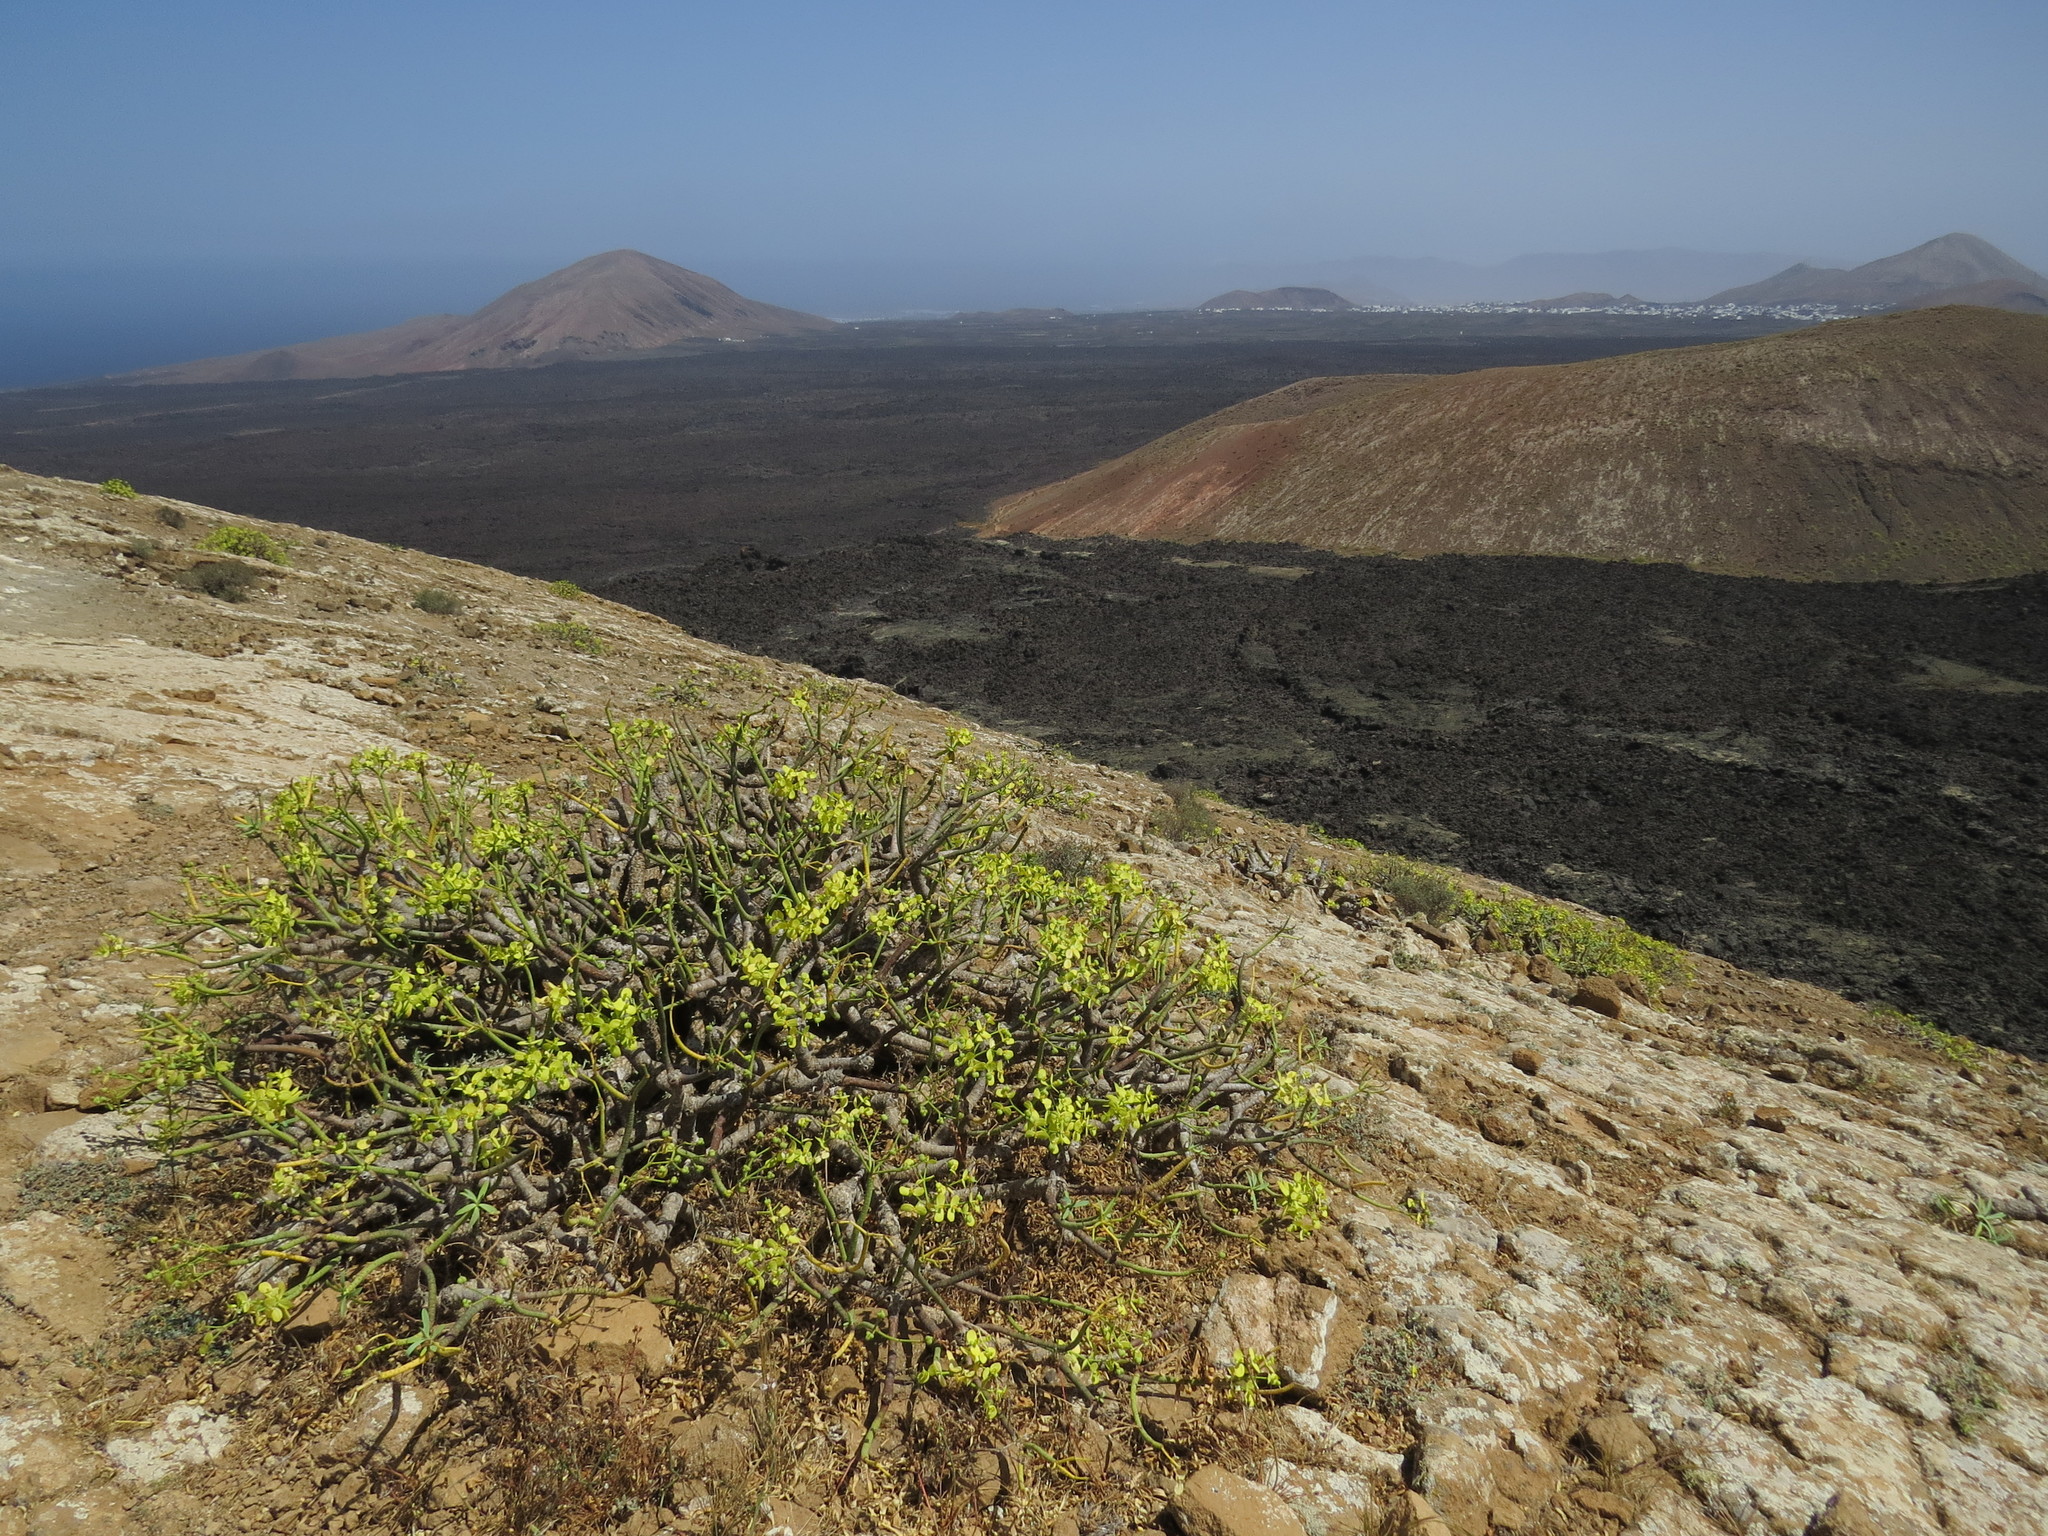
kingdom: Plantae
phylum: Tracheophyta
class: Magnoliopsida
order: Malpighiales
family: Euphorbiaceae
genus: Euphorbia
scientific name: Euphorbia regis-jubae
